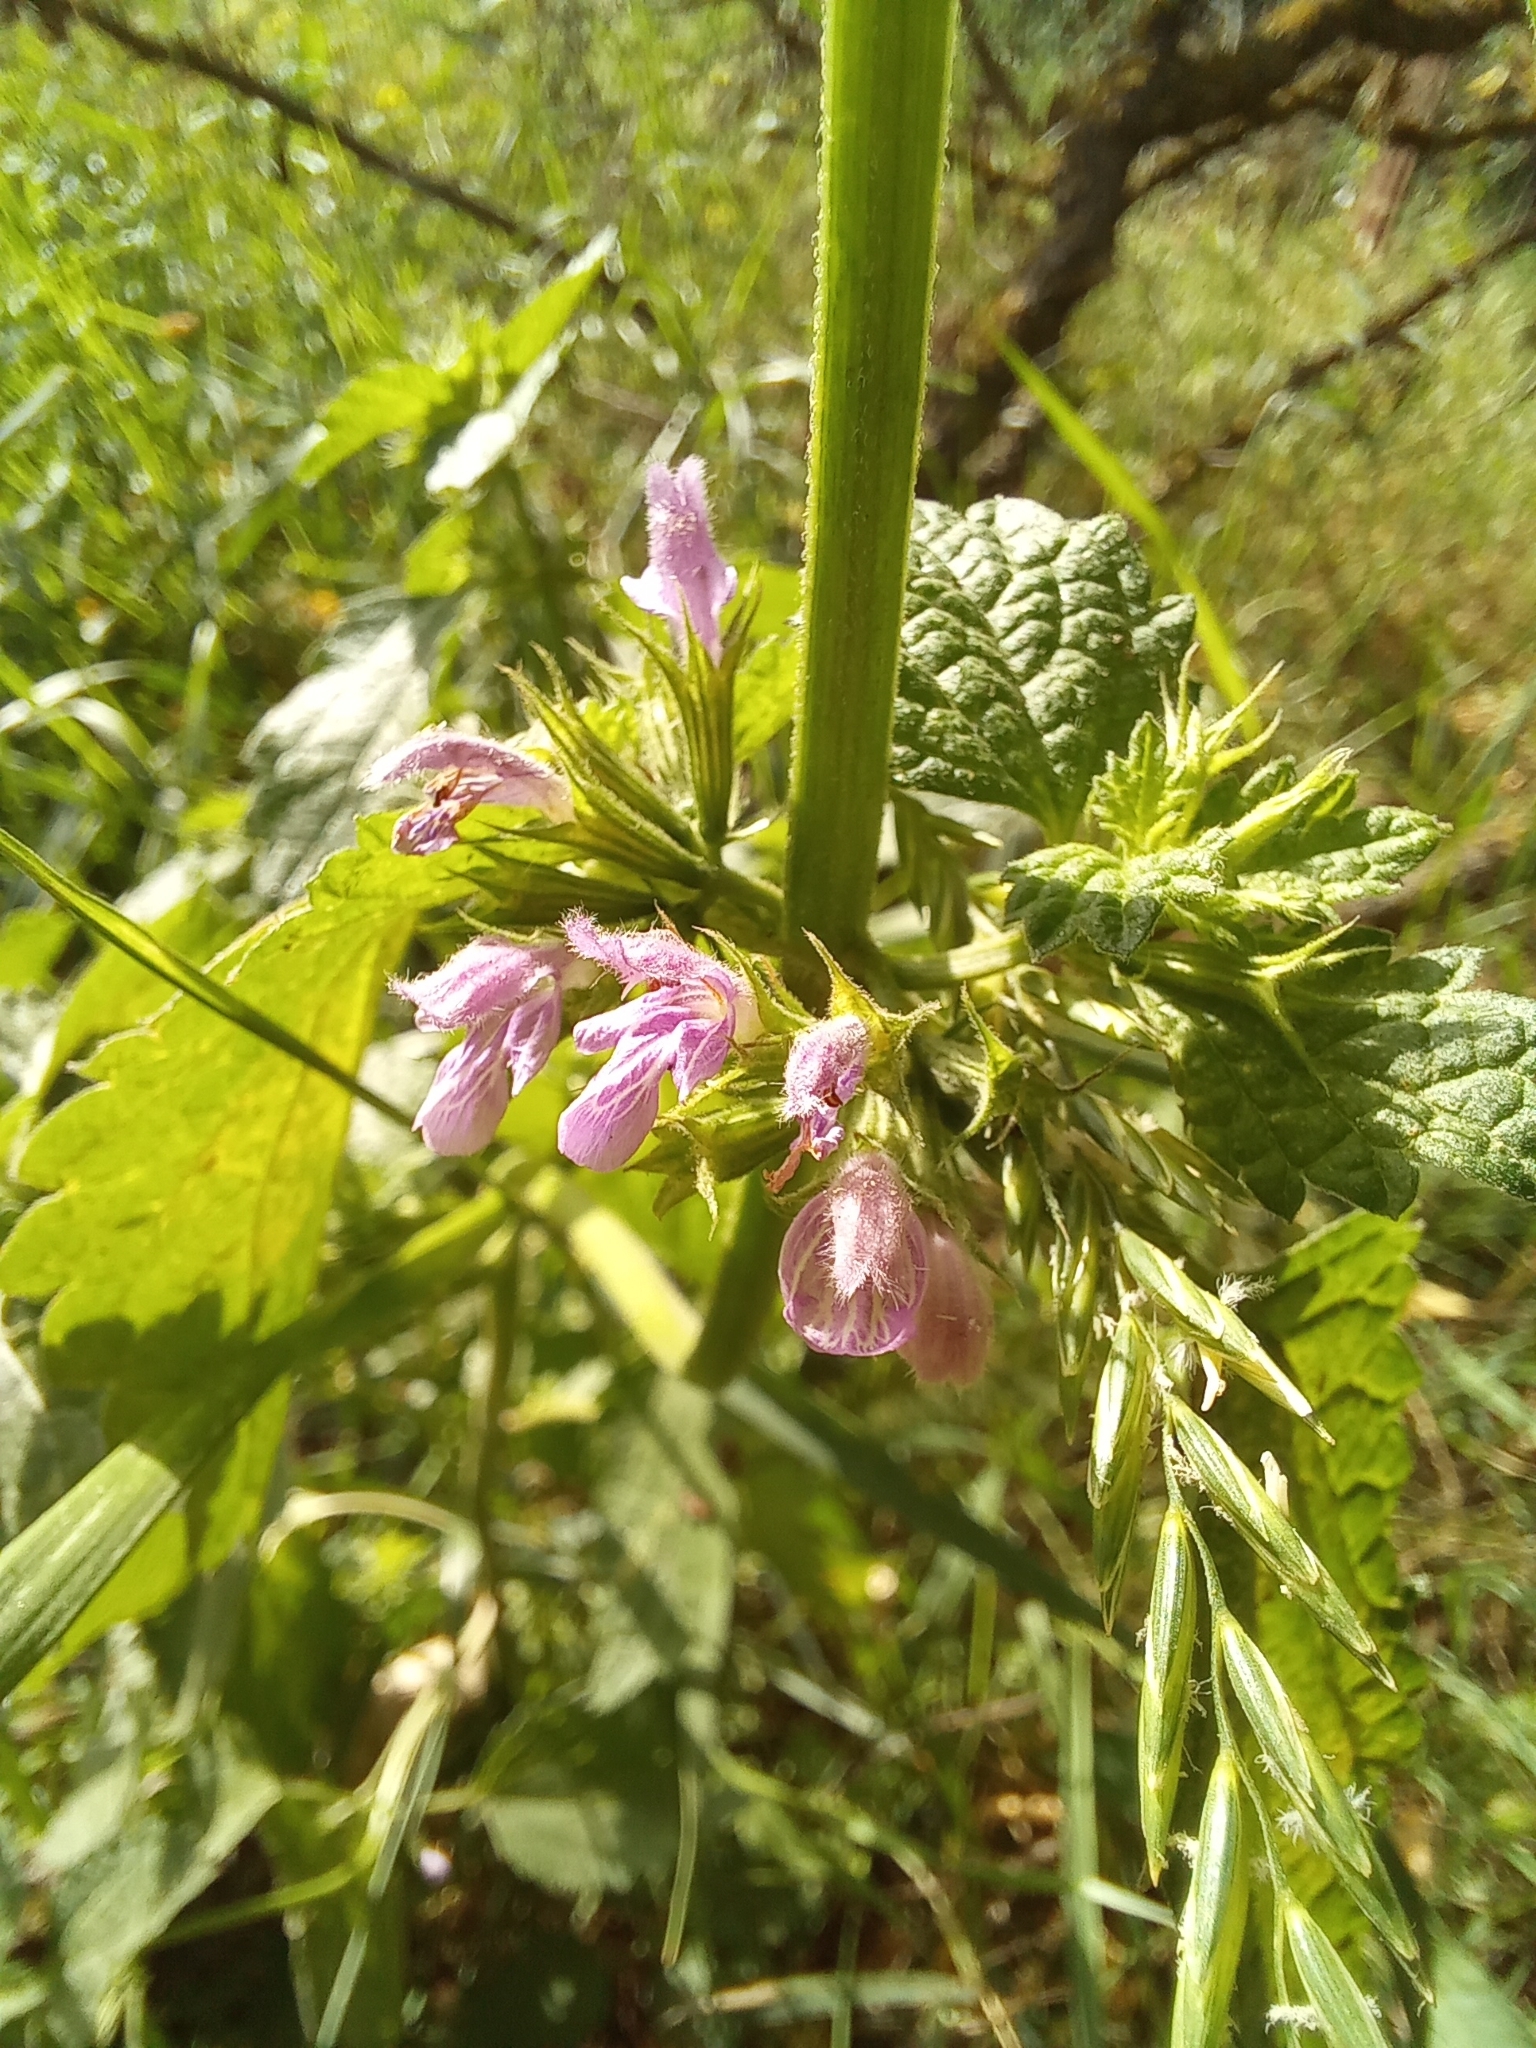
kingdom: Plantae
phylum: Tracheophyta
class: Magnoliopsida
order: Lamiales
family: Lamiaceae
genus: Ballota
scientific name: Ballota nigra
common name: Black horehound
